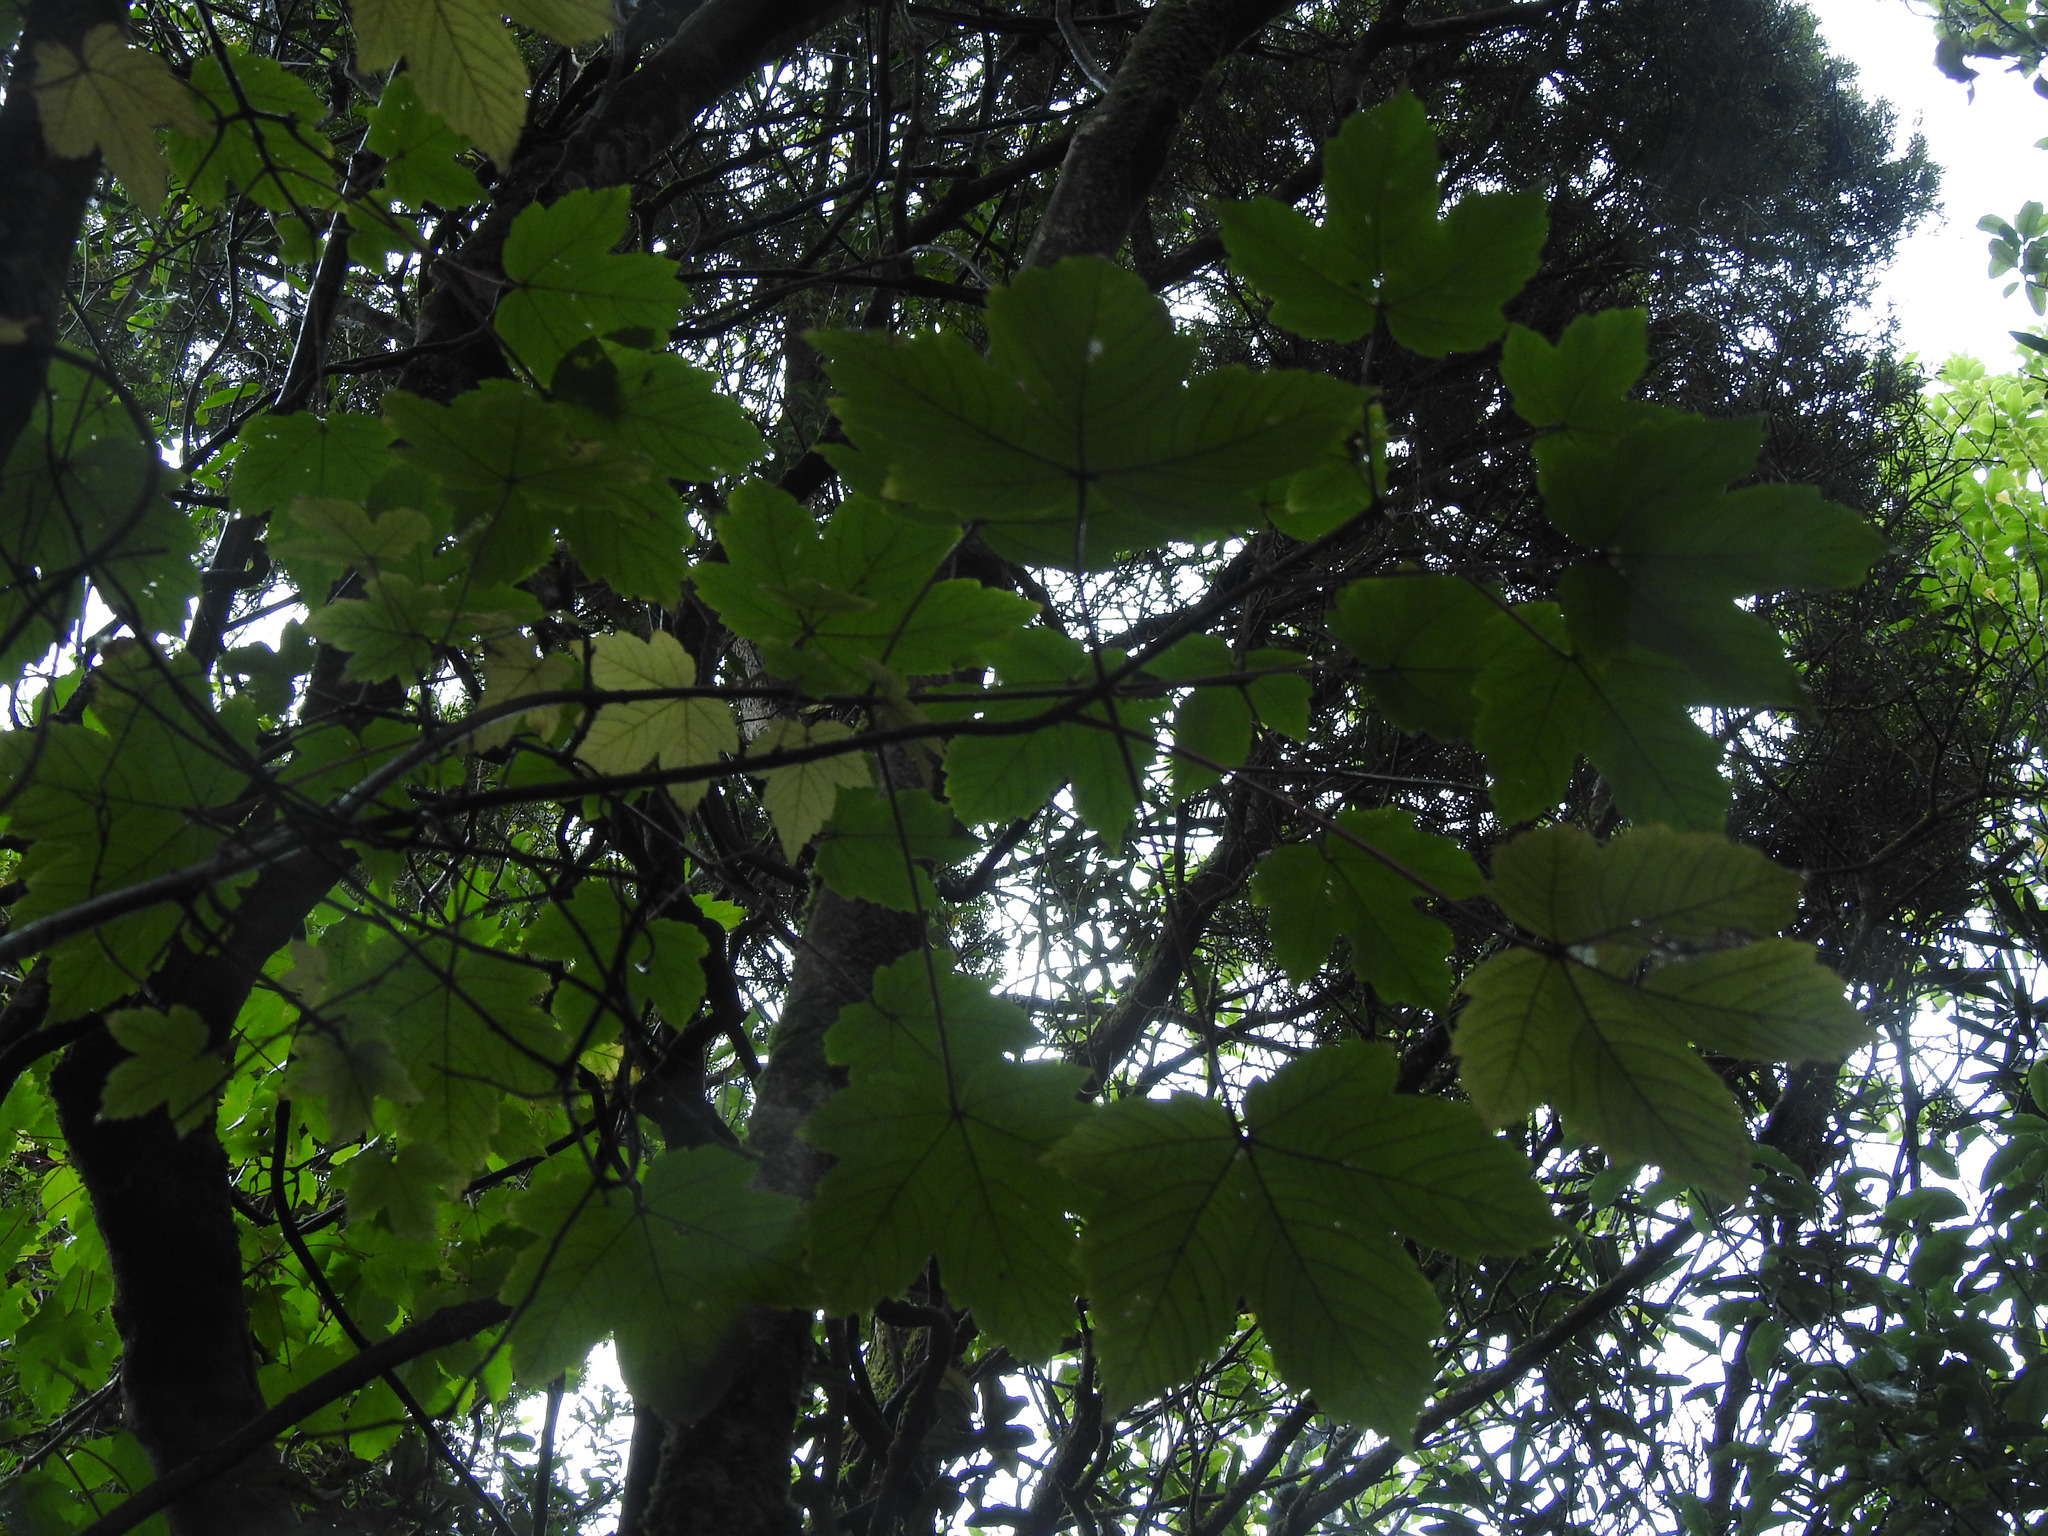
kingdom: Plantae
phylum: Tracheophyta
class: Magnoliopsida
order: Sapindales
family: Sapindaceae
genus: Acer
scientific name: Acer pseudoplatanus
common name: Sycamore
